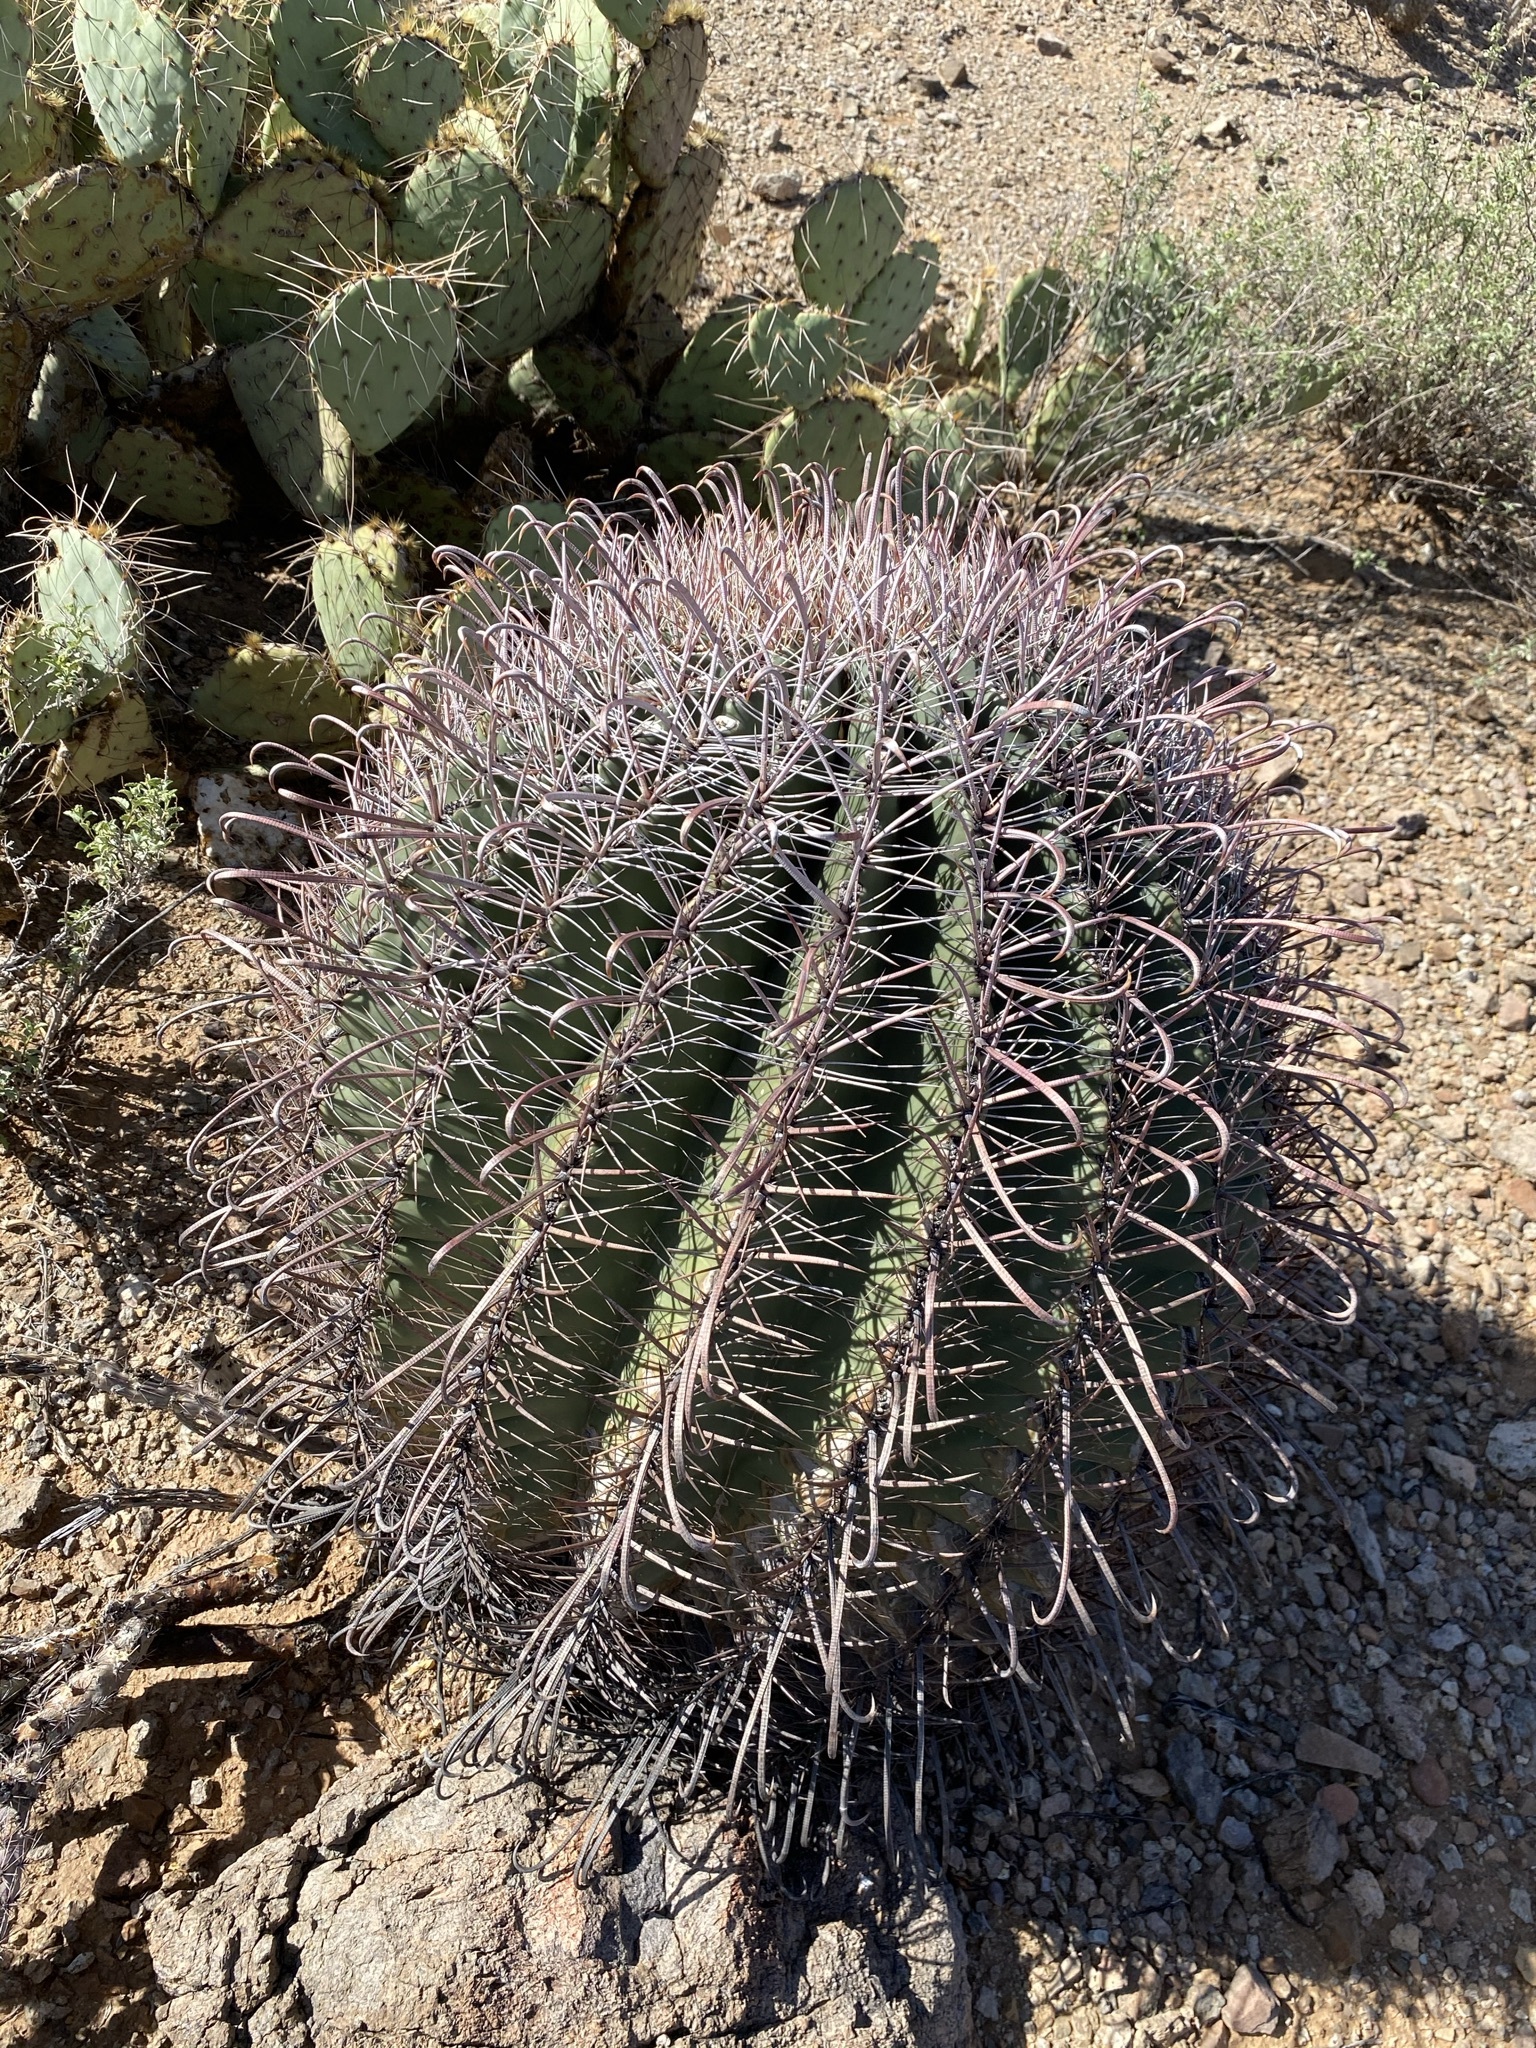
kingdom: Plantae
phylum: Tracheophyta
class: Magnoliopsida
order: Caryophyllales
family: Cactaceae
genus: Ferocactus
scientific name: Ferocactus wislizeni
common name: Candy barrel cactus
